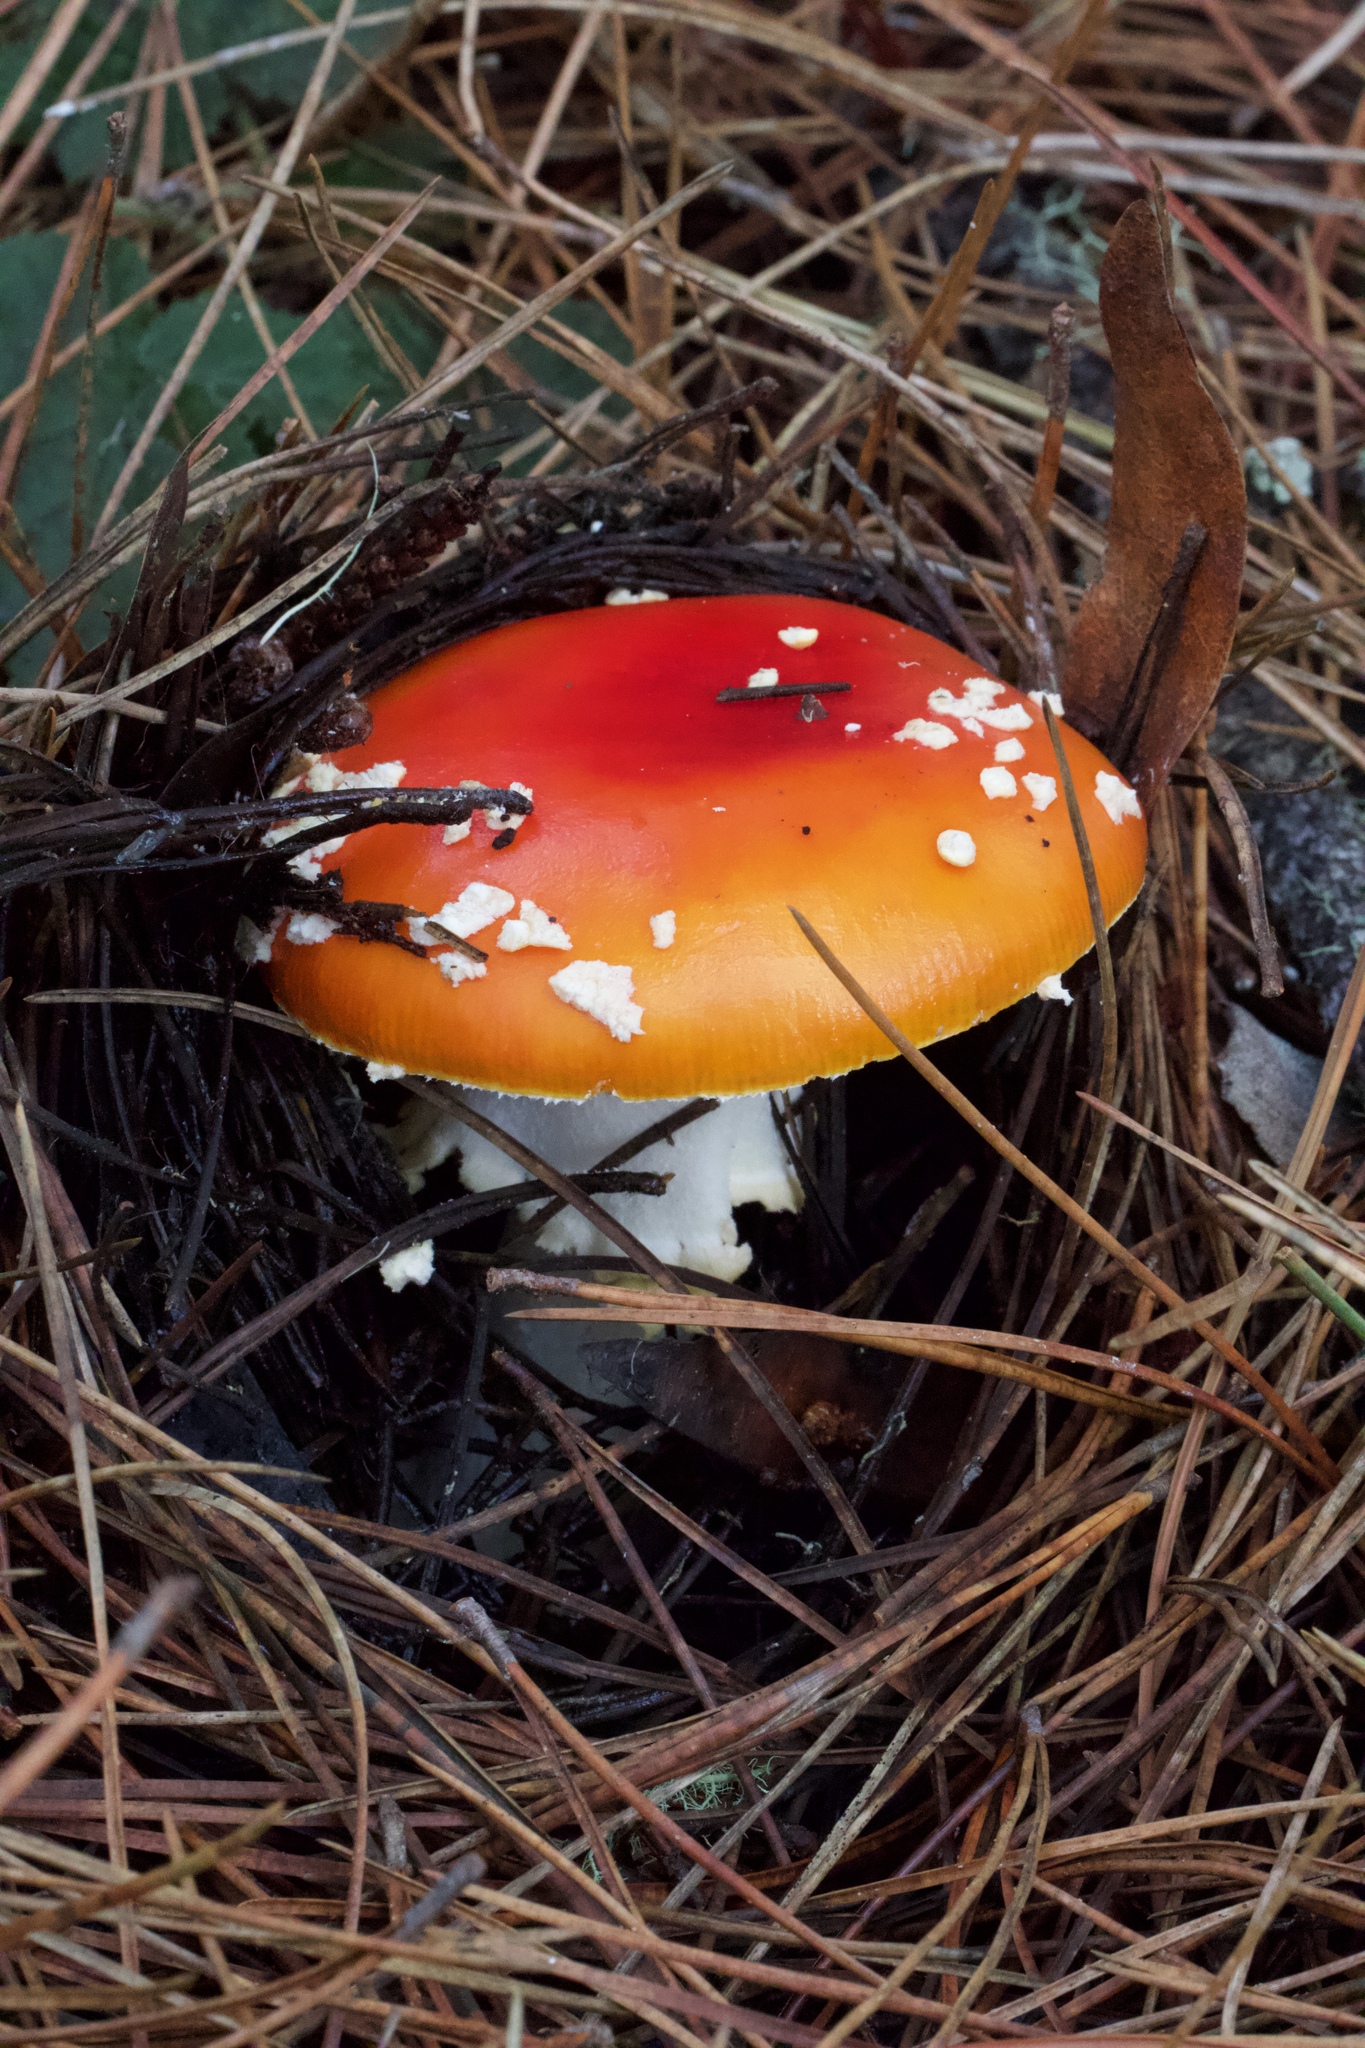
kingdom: Fungi
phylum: Basidiomycota
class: Agaricomycetes
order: Agaricales
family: Amanitaceae
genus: Amanita
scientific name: Amanita muscaria
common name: Fly agaric
